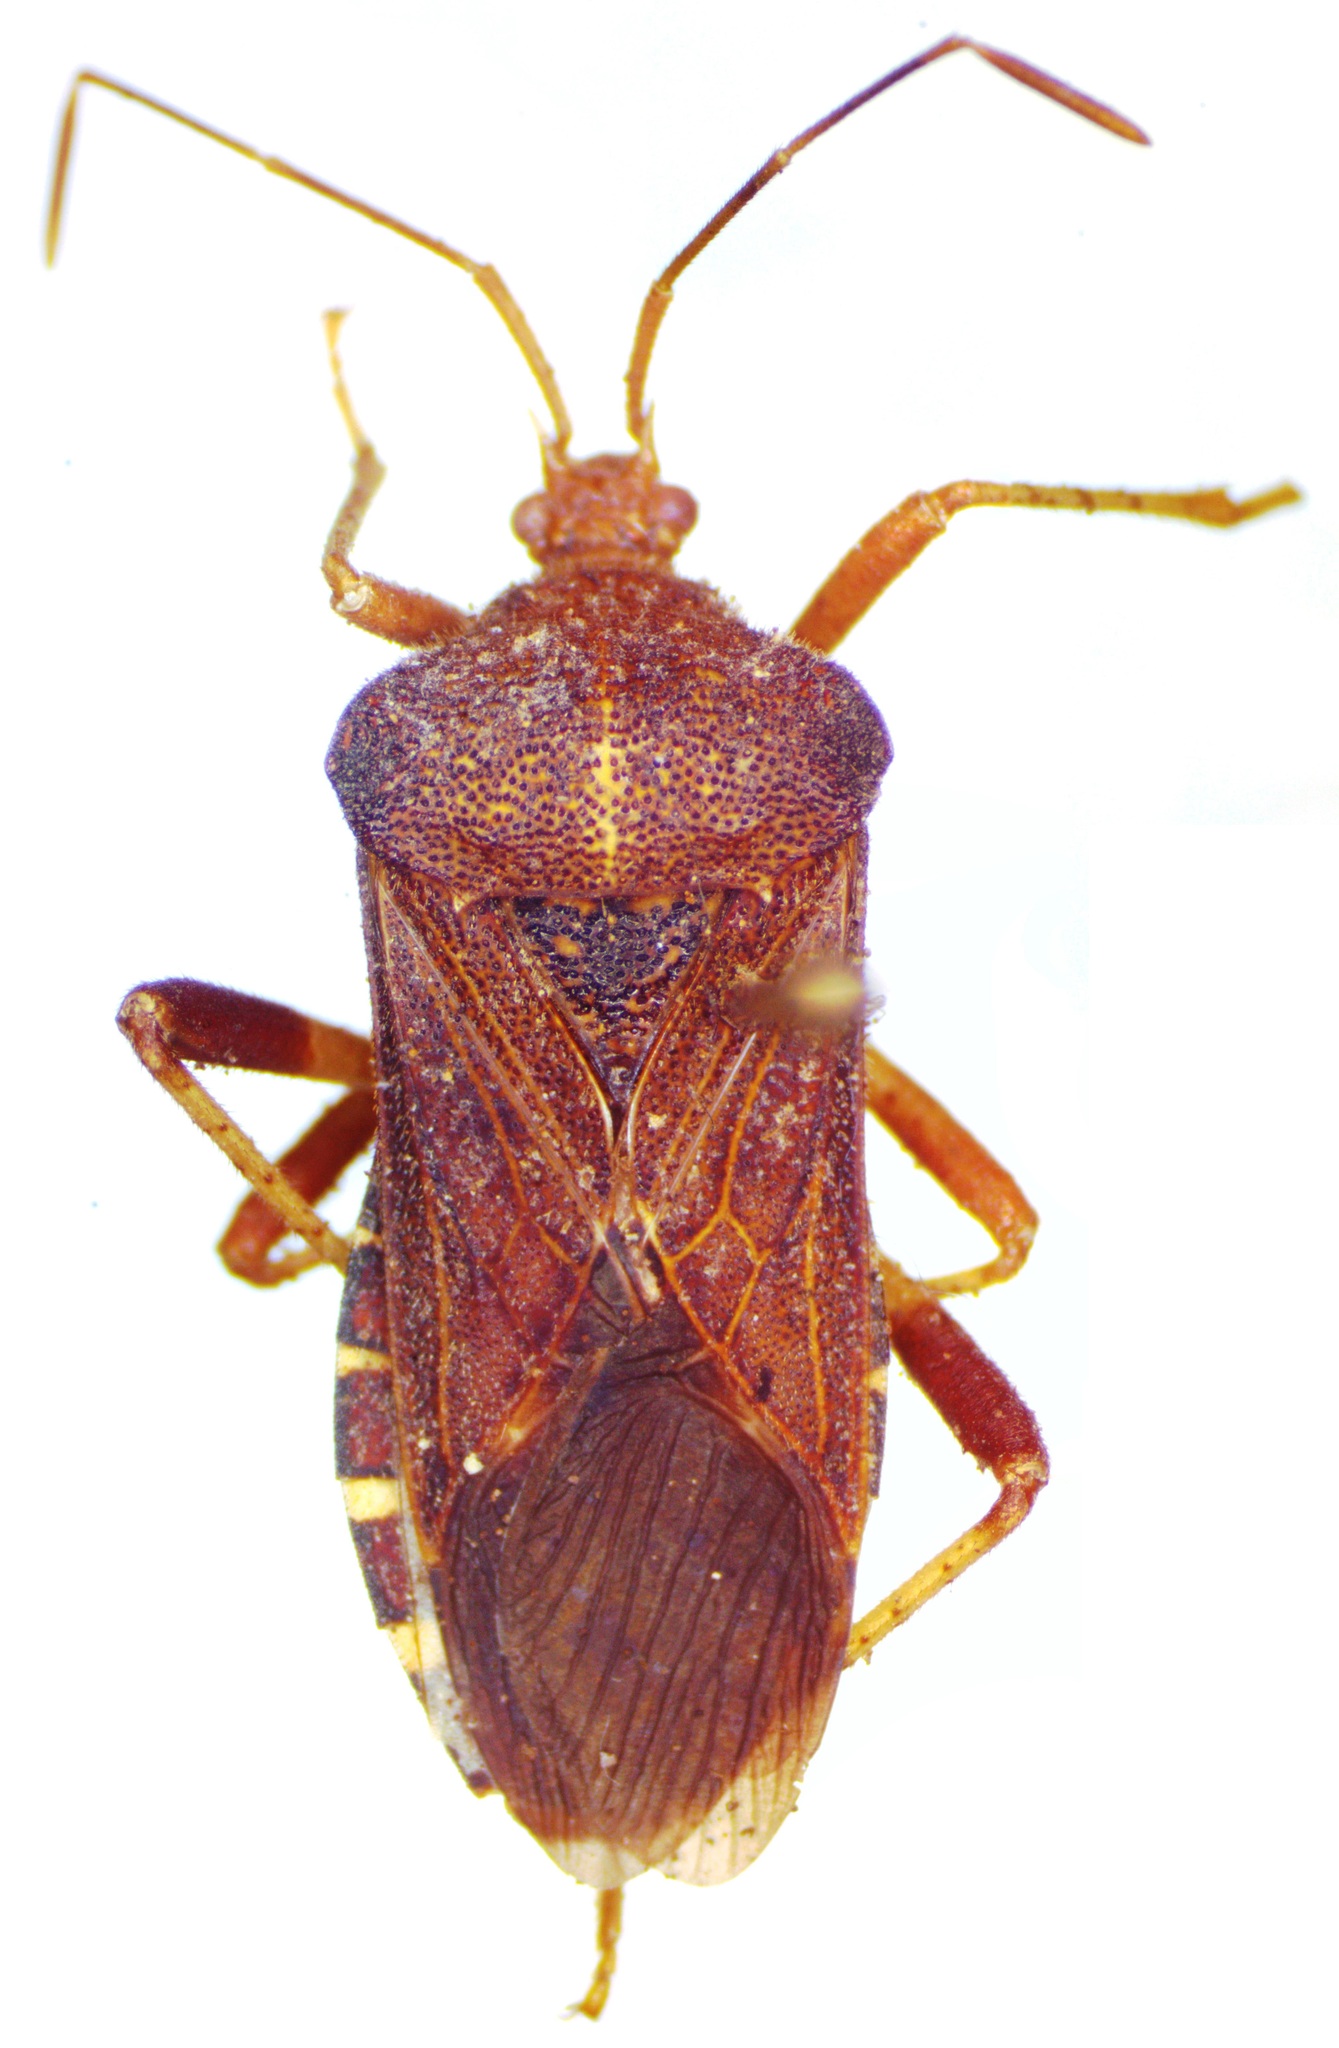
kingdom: Animalia
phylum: Arthropoda
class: Insecta
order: Hemiptera
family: Coreidae
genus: Anasa
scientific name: Anasa scorbutica
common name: Squash bug
